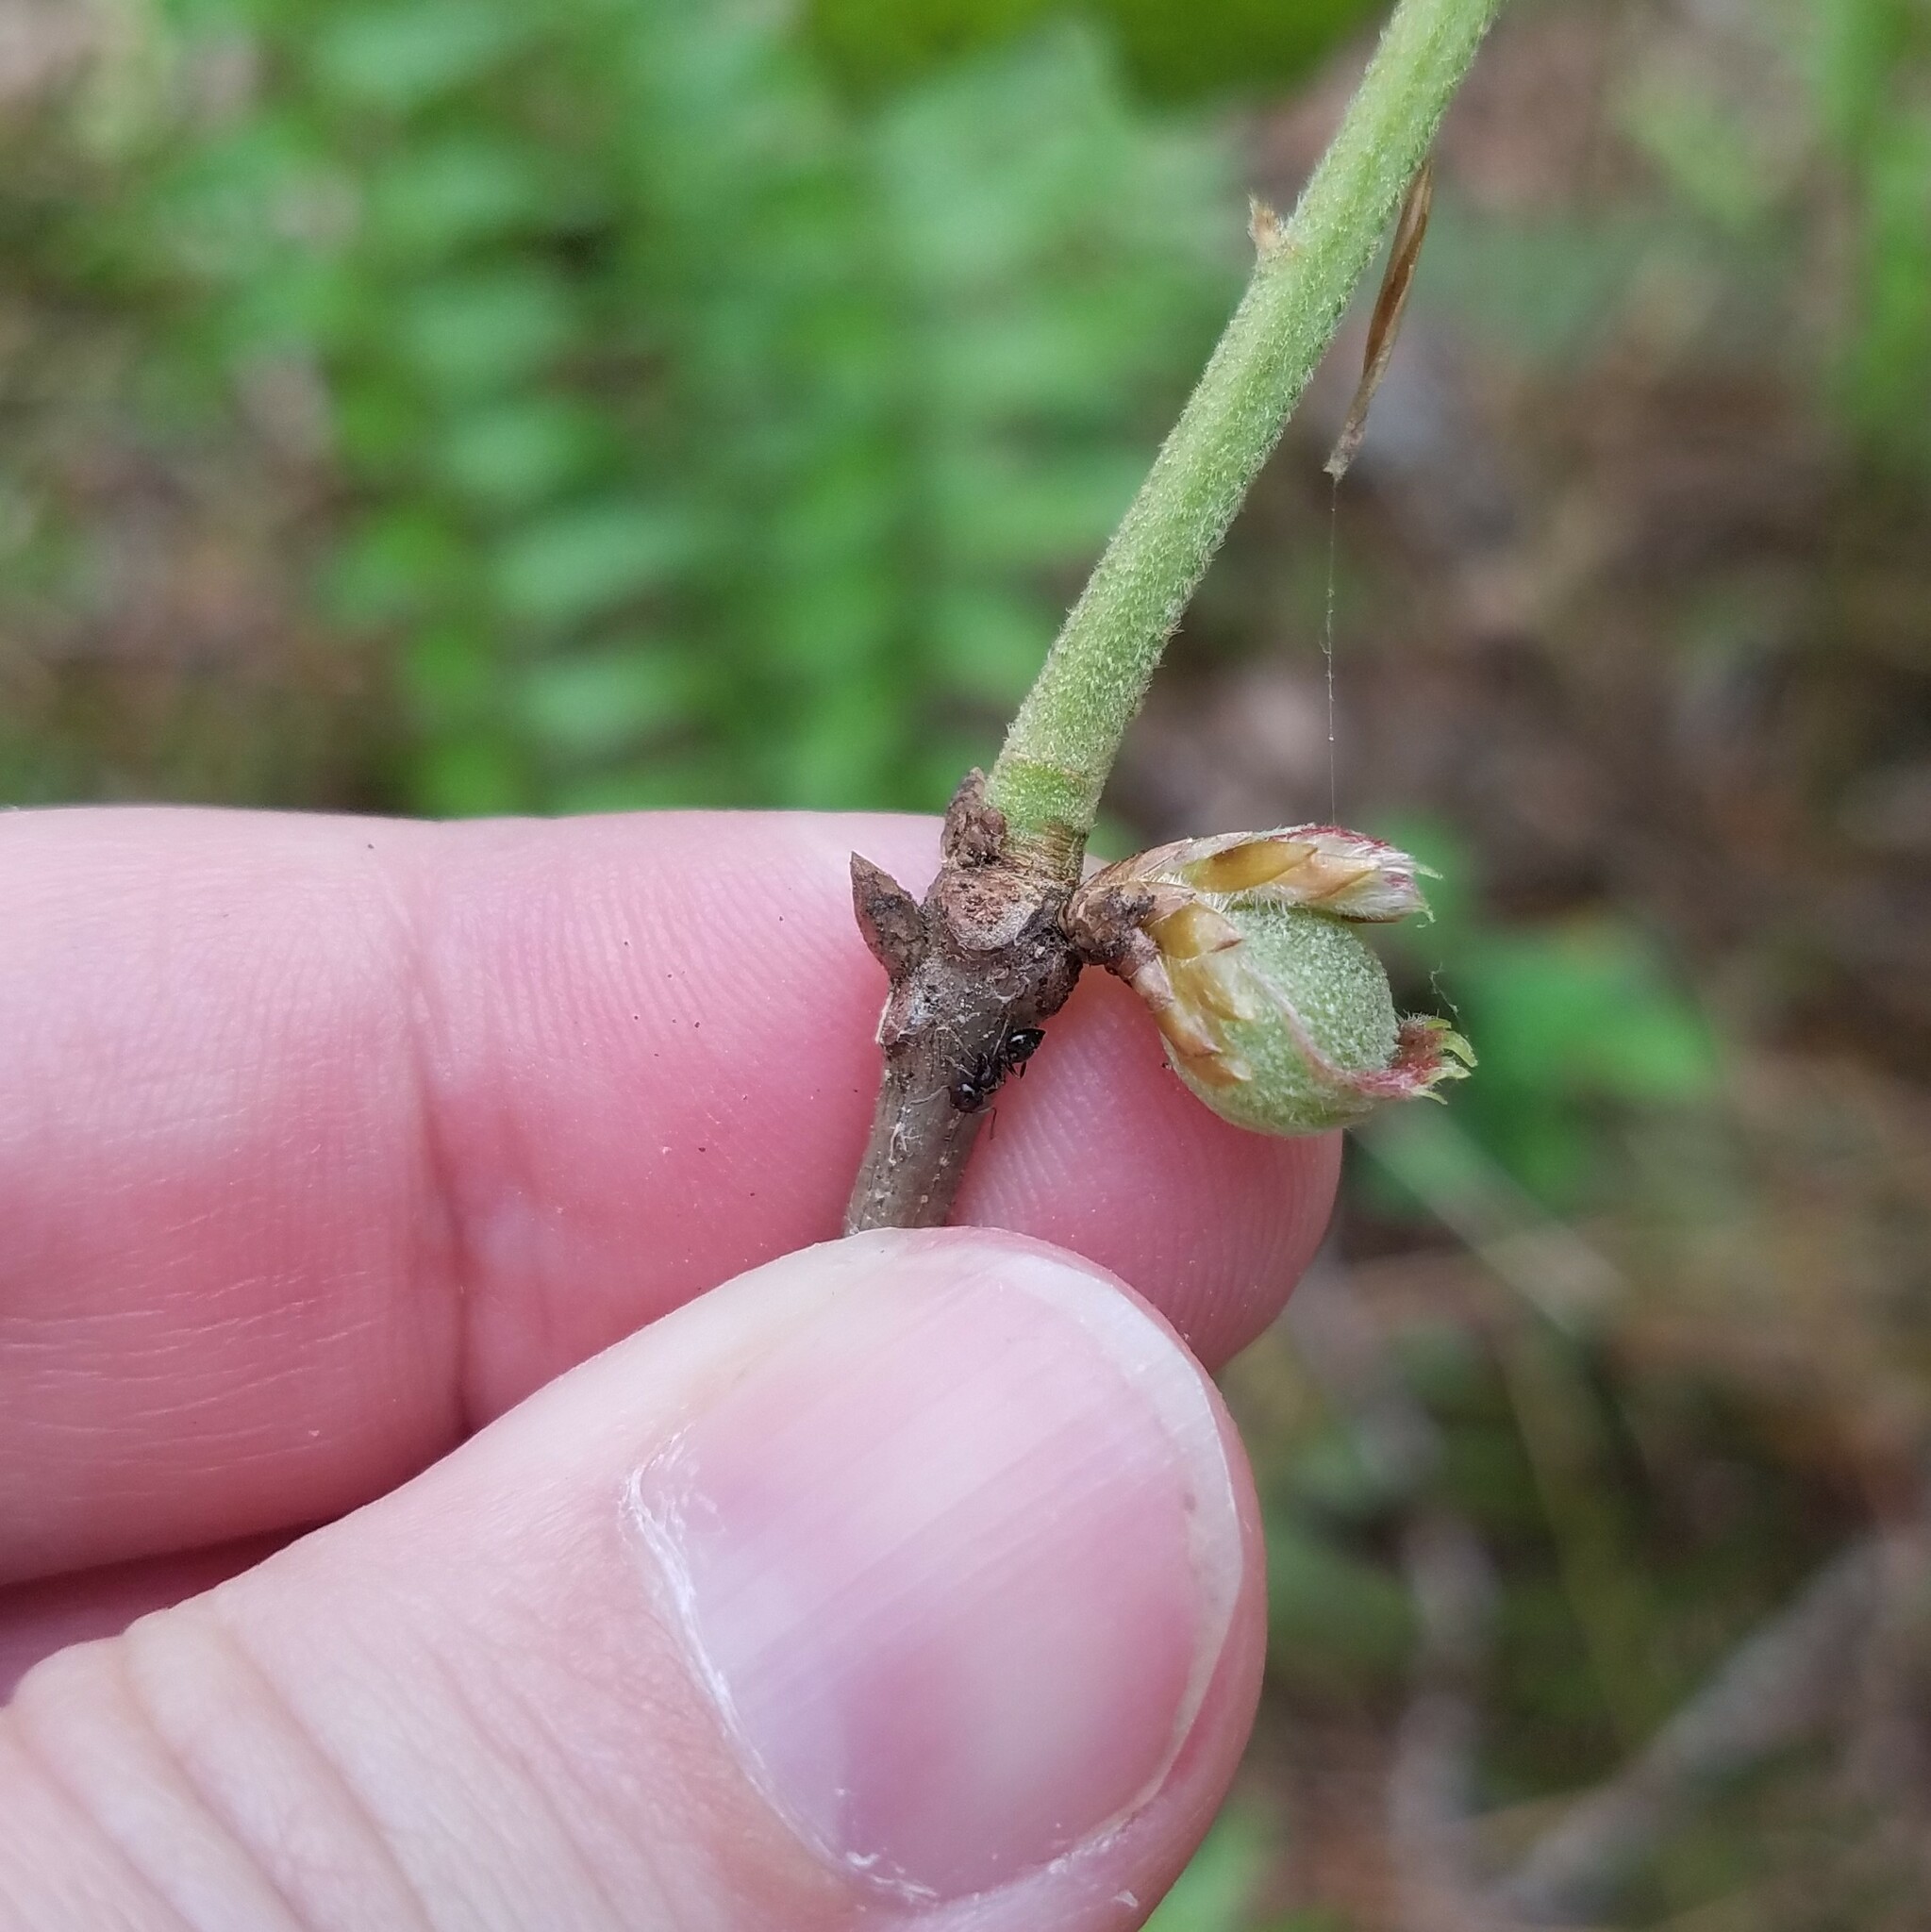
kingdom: Plantae
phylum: Tracheophyta
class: Magnoliopsida
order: Fagales
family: Fagaceae
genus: Quercus
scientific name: Quercus falcata
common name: Southern red oak
